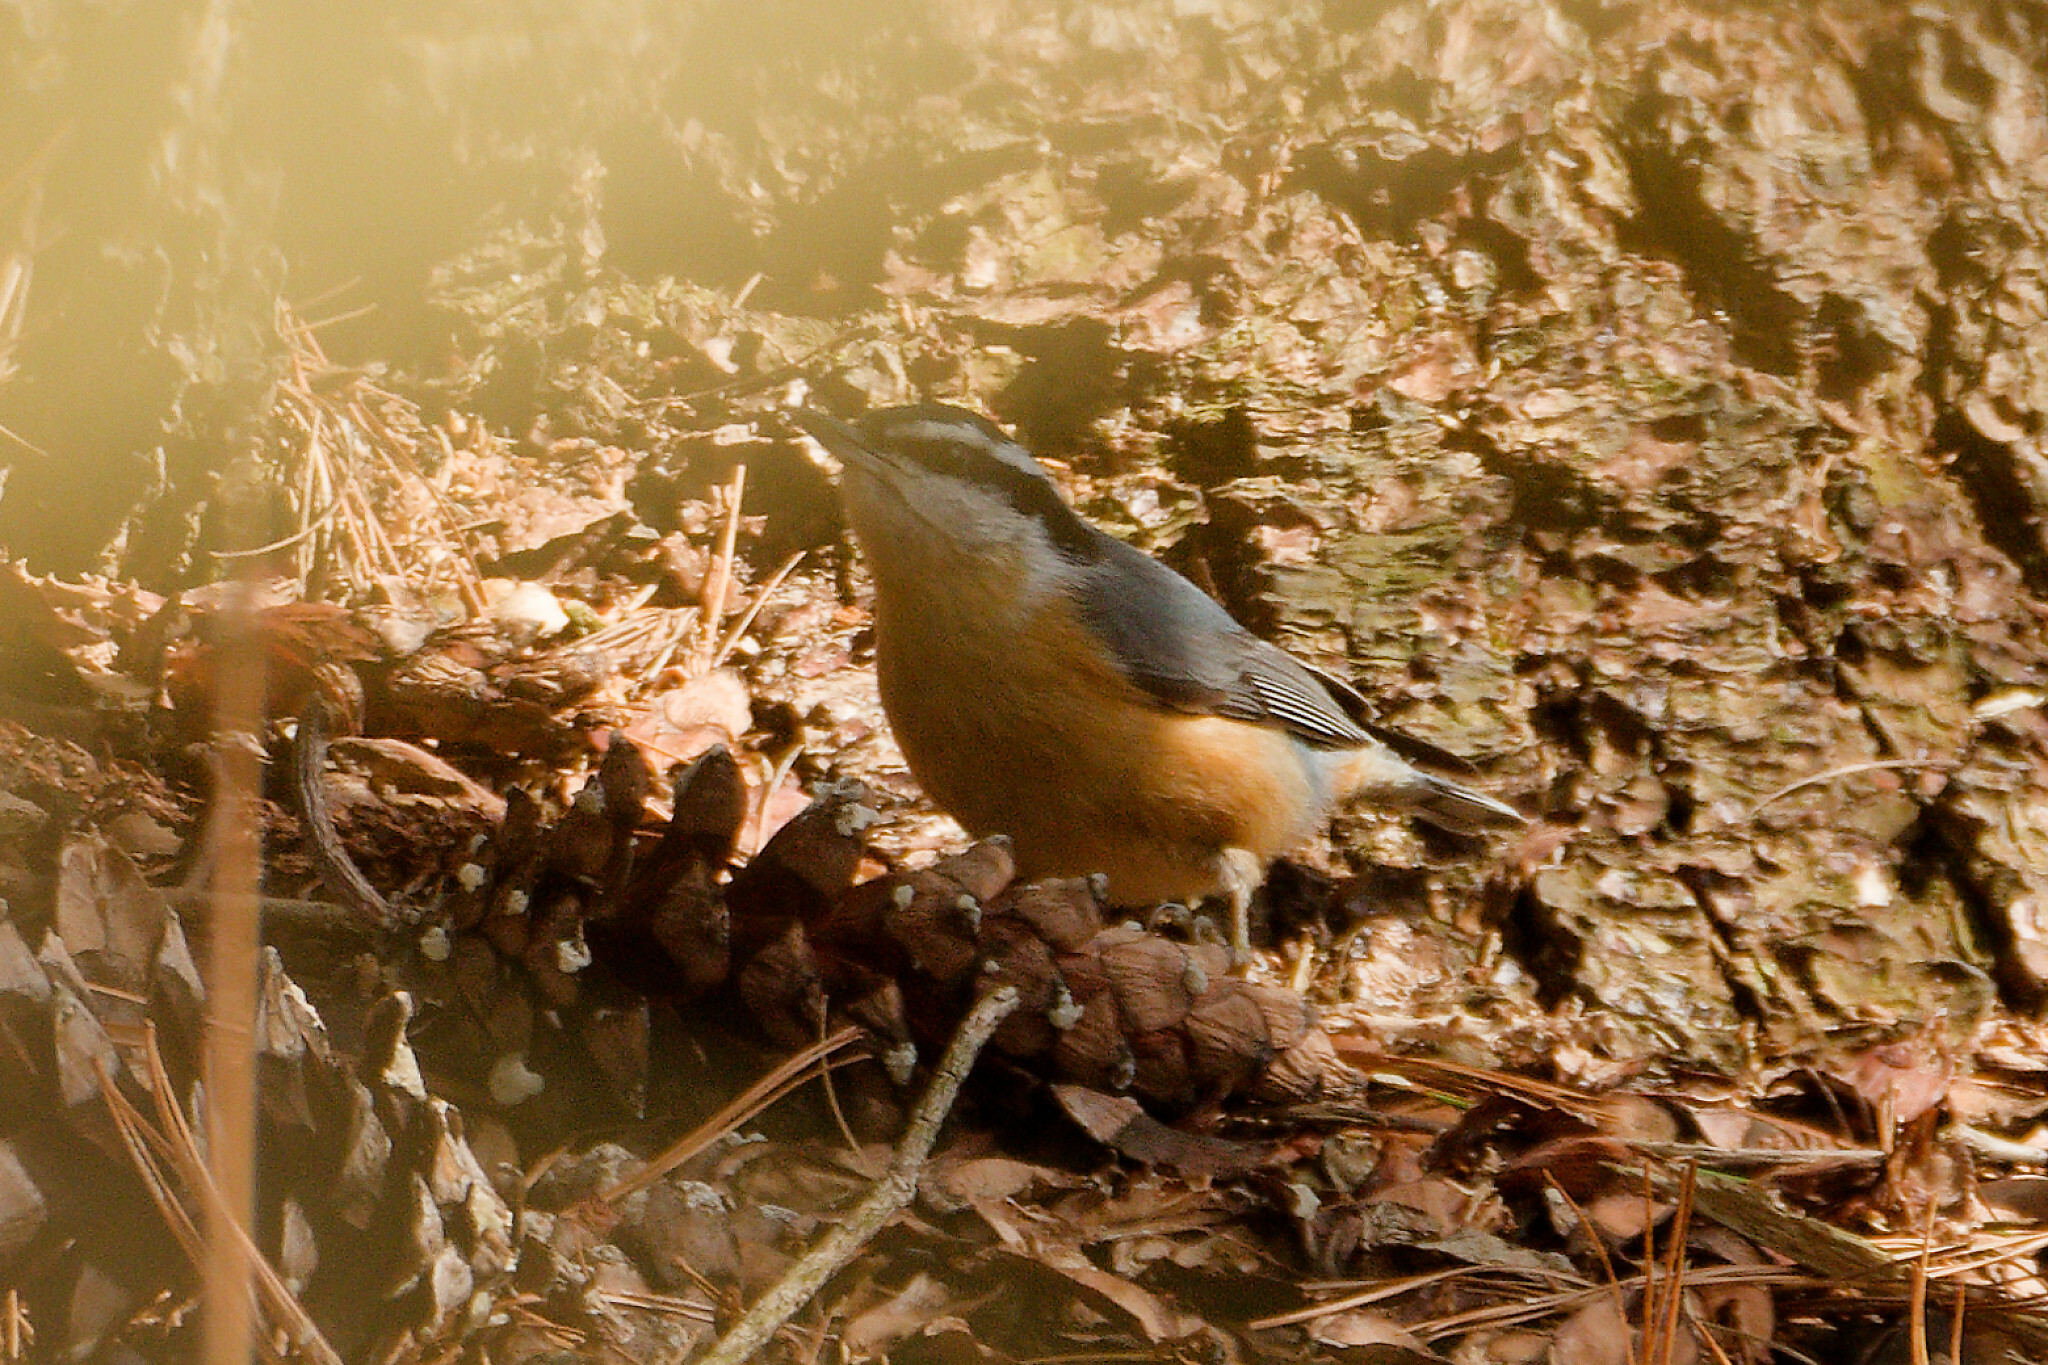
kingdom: Animalia
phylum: Chordata
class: Aves
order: Passeriformes
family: Sittidae
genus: Sitta
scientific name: Sitta canadensis
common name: Red-breasted nuthatch
